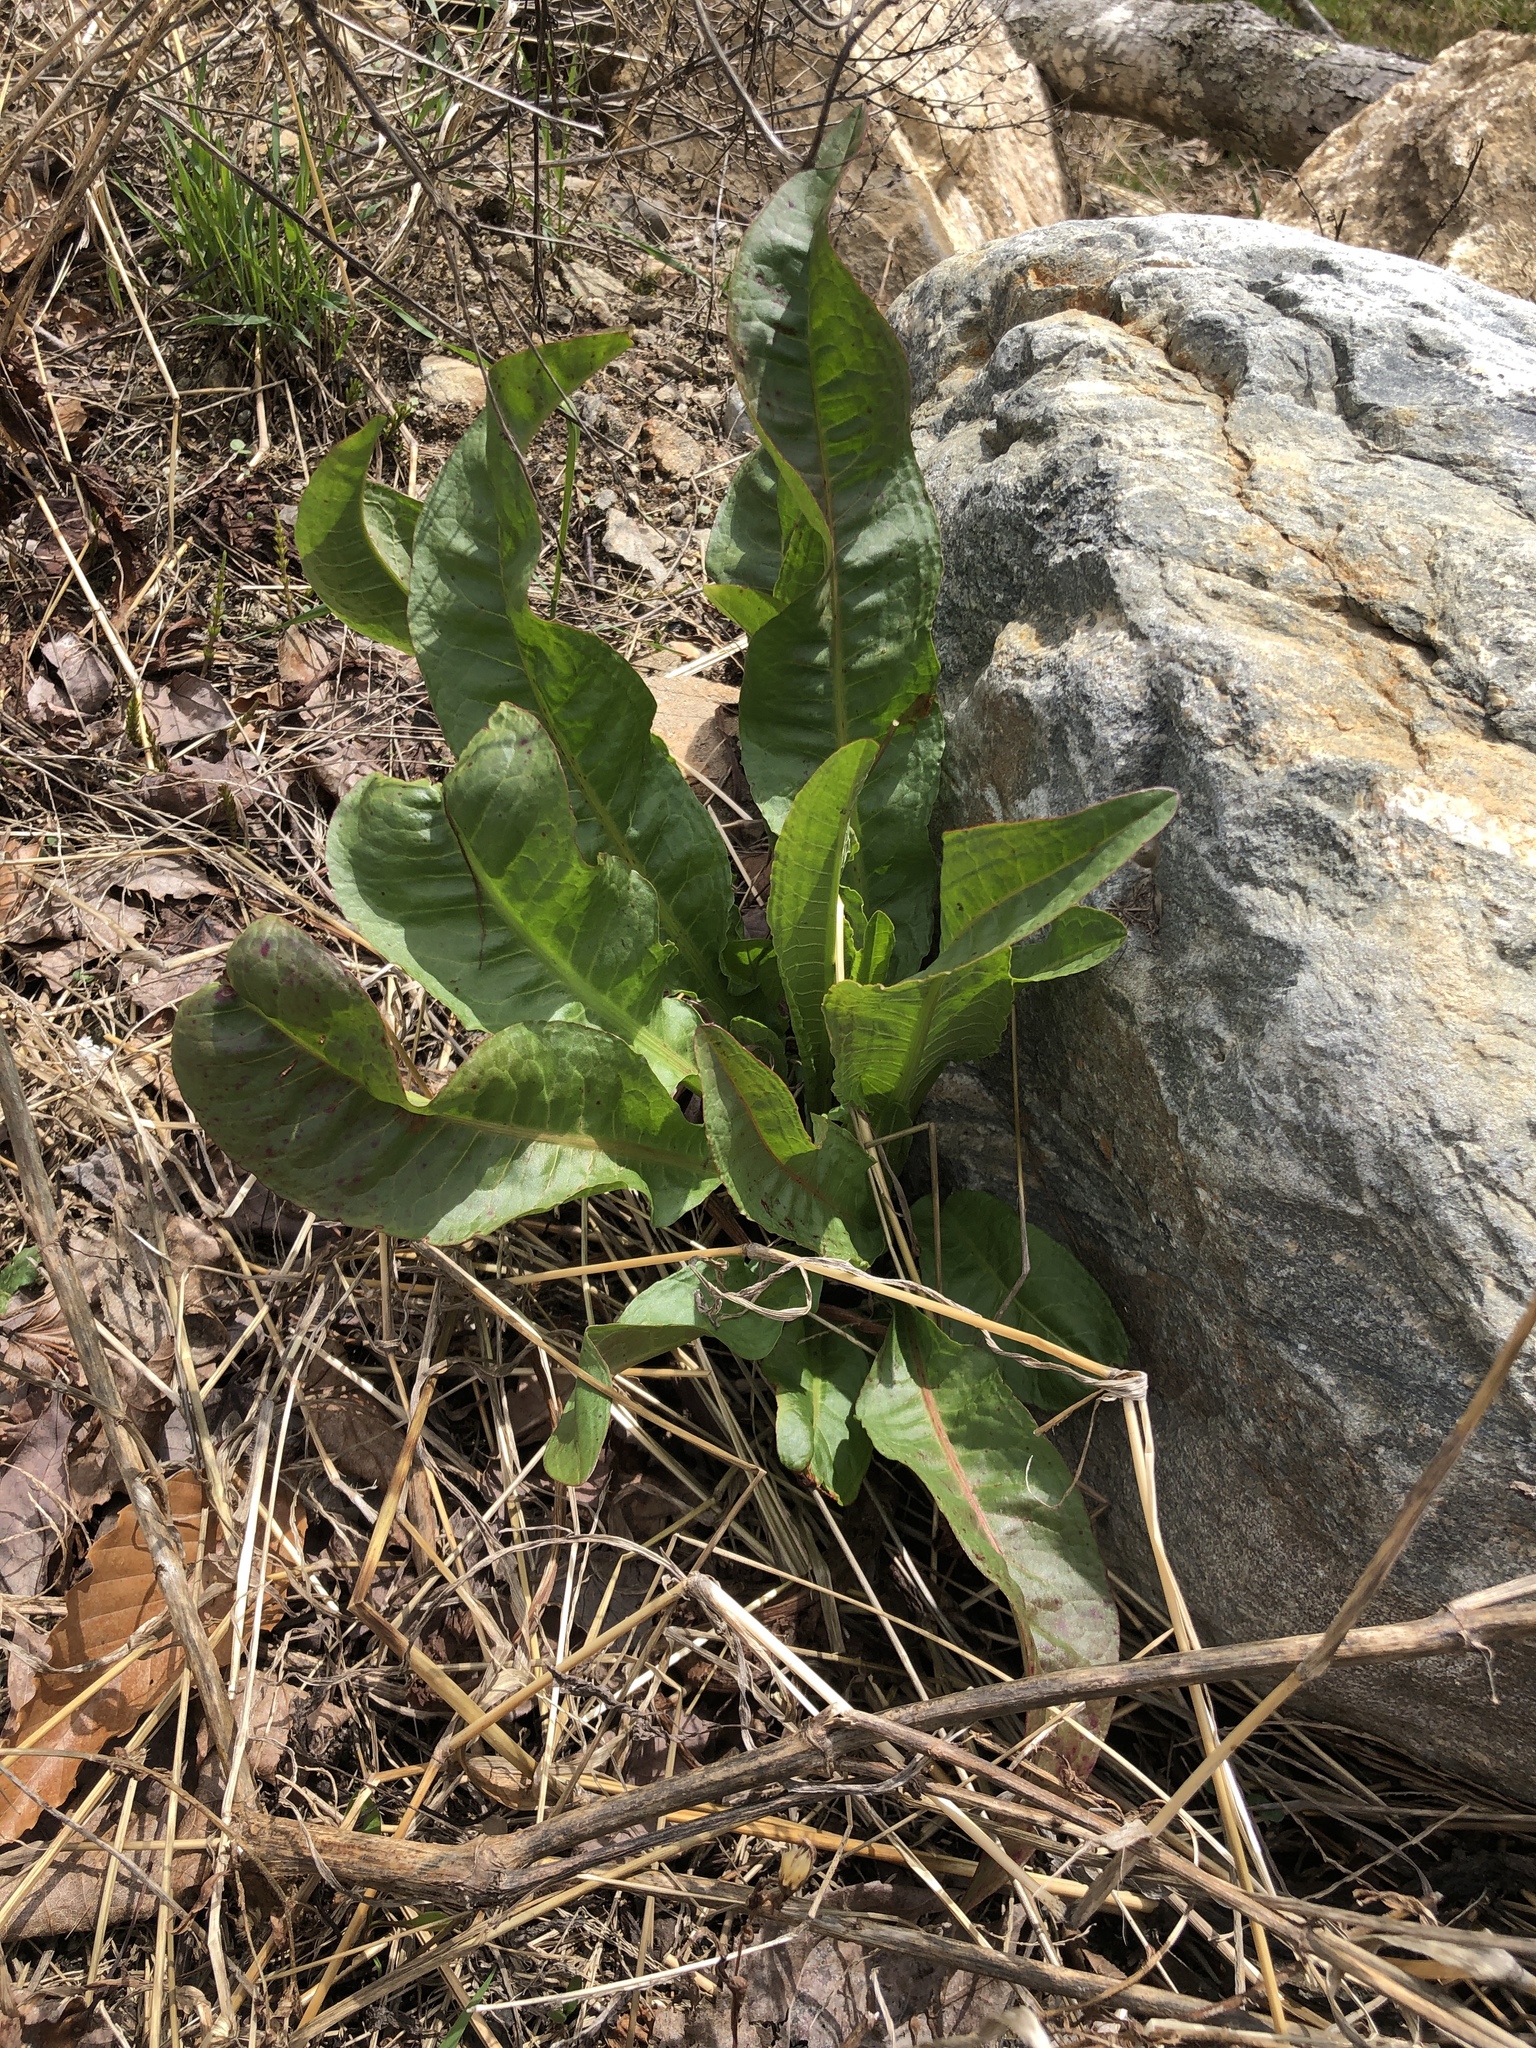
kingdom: Plantae
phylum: Tracheophyta
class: Magnoliopsida
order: Caryophyllales
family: Polygonaceae
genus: Rumex
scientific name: Rumex crispus
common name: Curled dock
